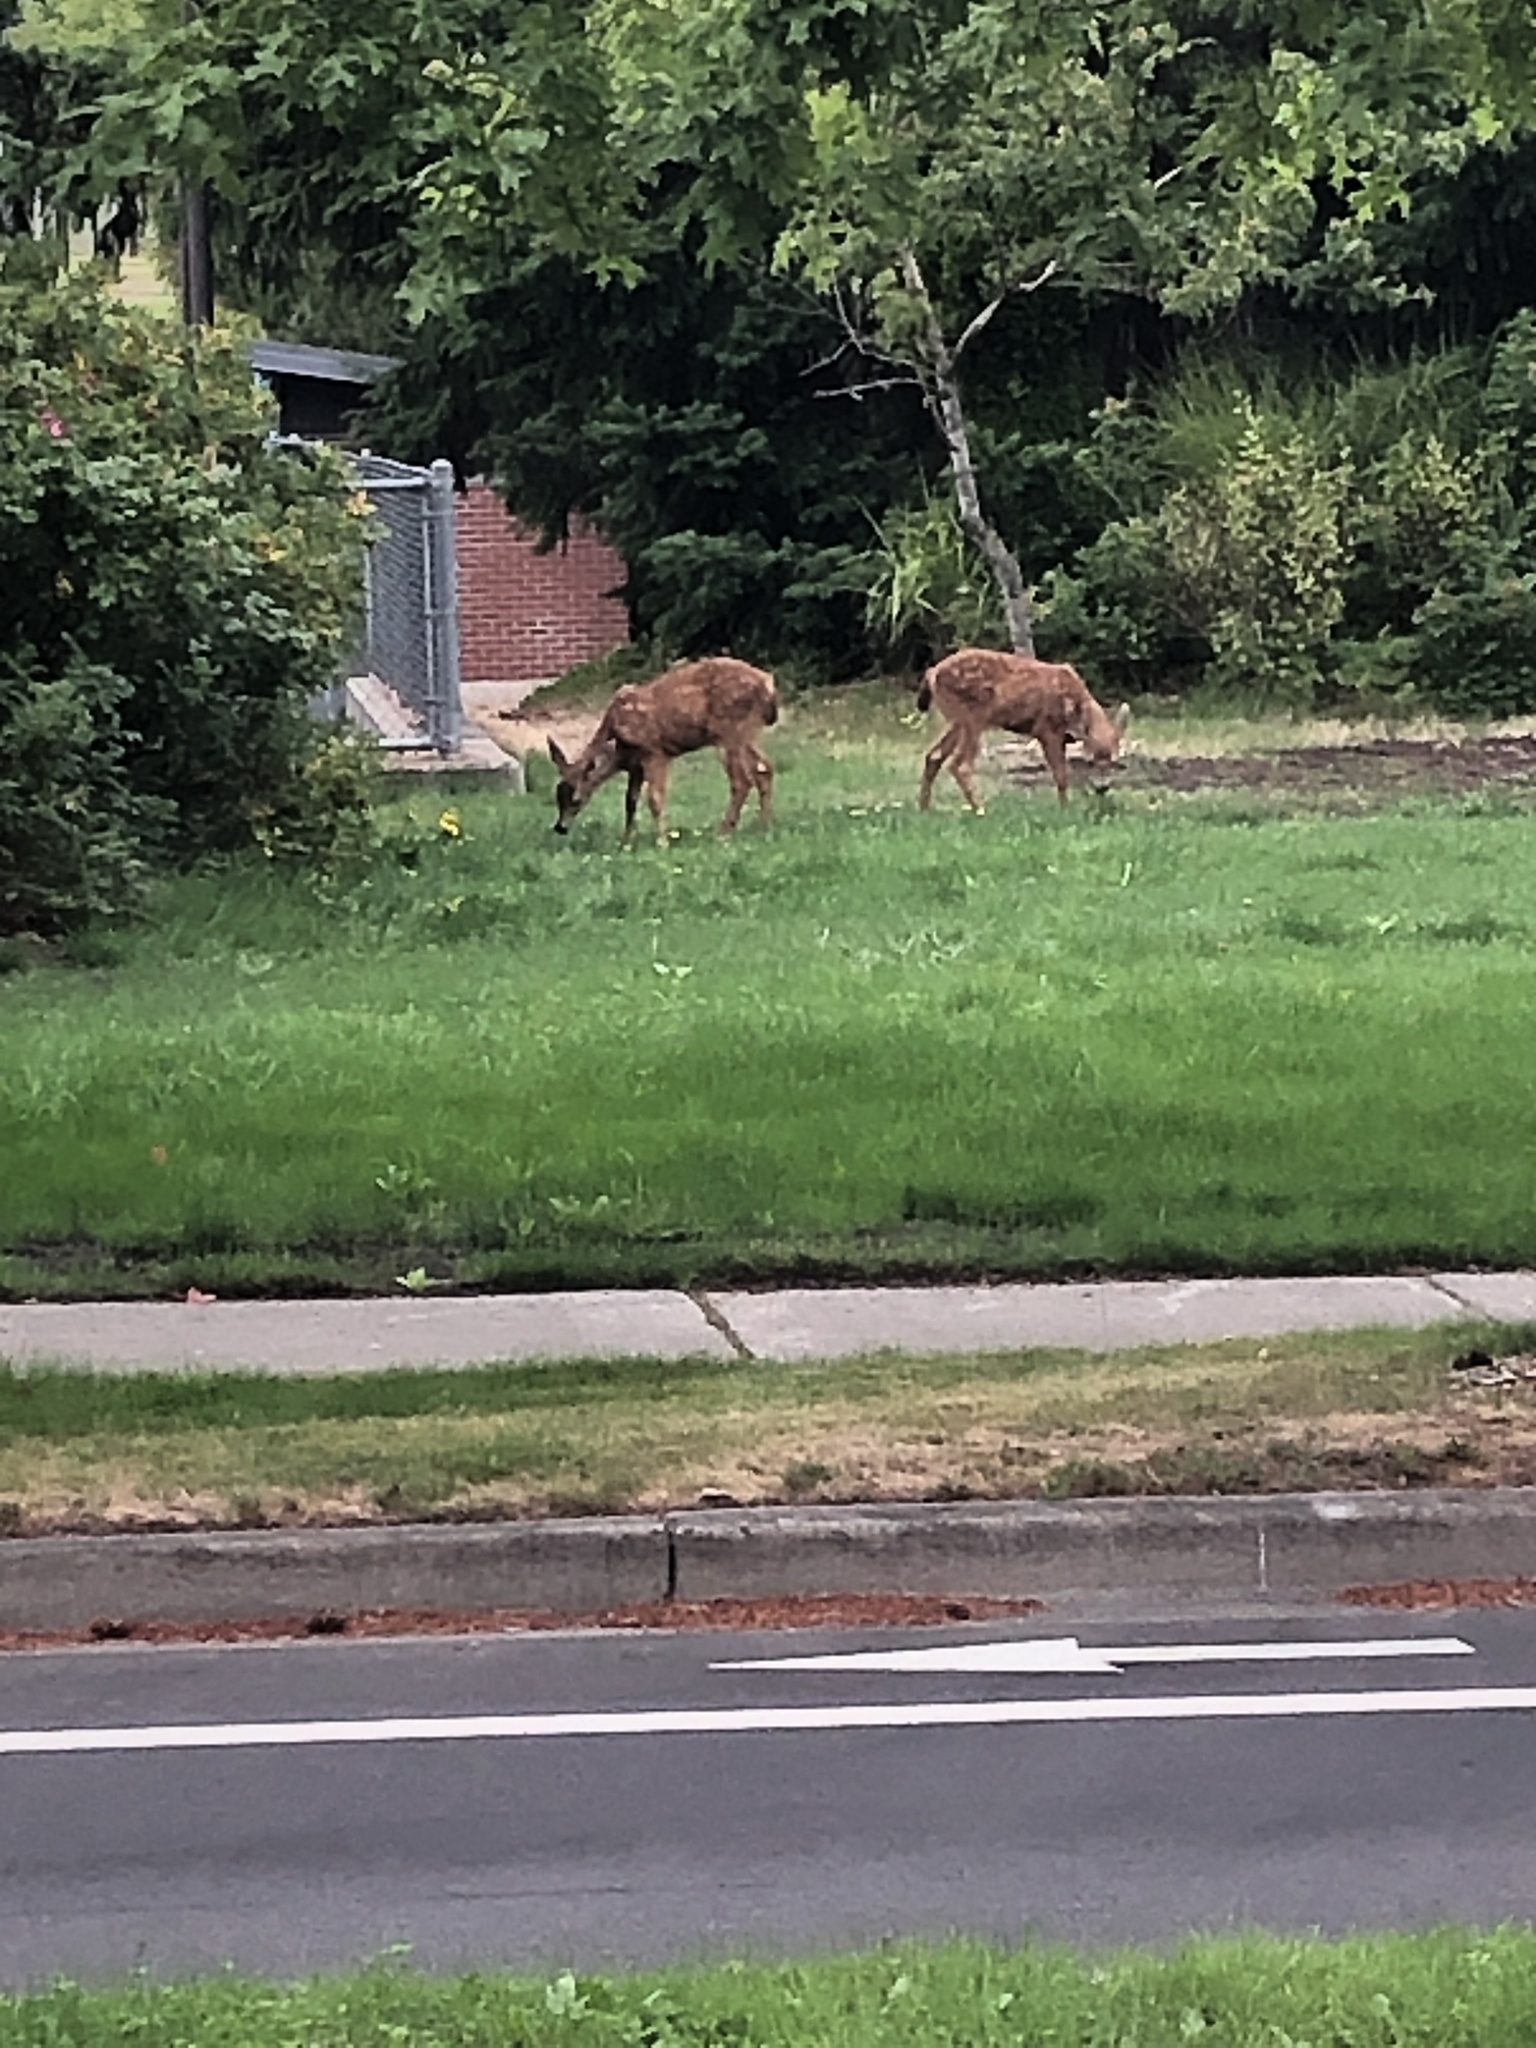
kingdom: Animalia
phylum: Chordata
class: Mammalia
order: Artiodactyla
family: Cervidae
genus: Odocoileus
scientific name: Odocoileus hemionus
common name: Mule deer
